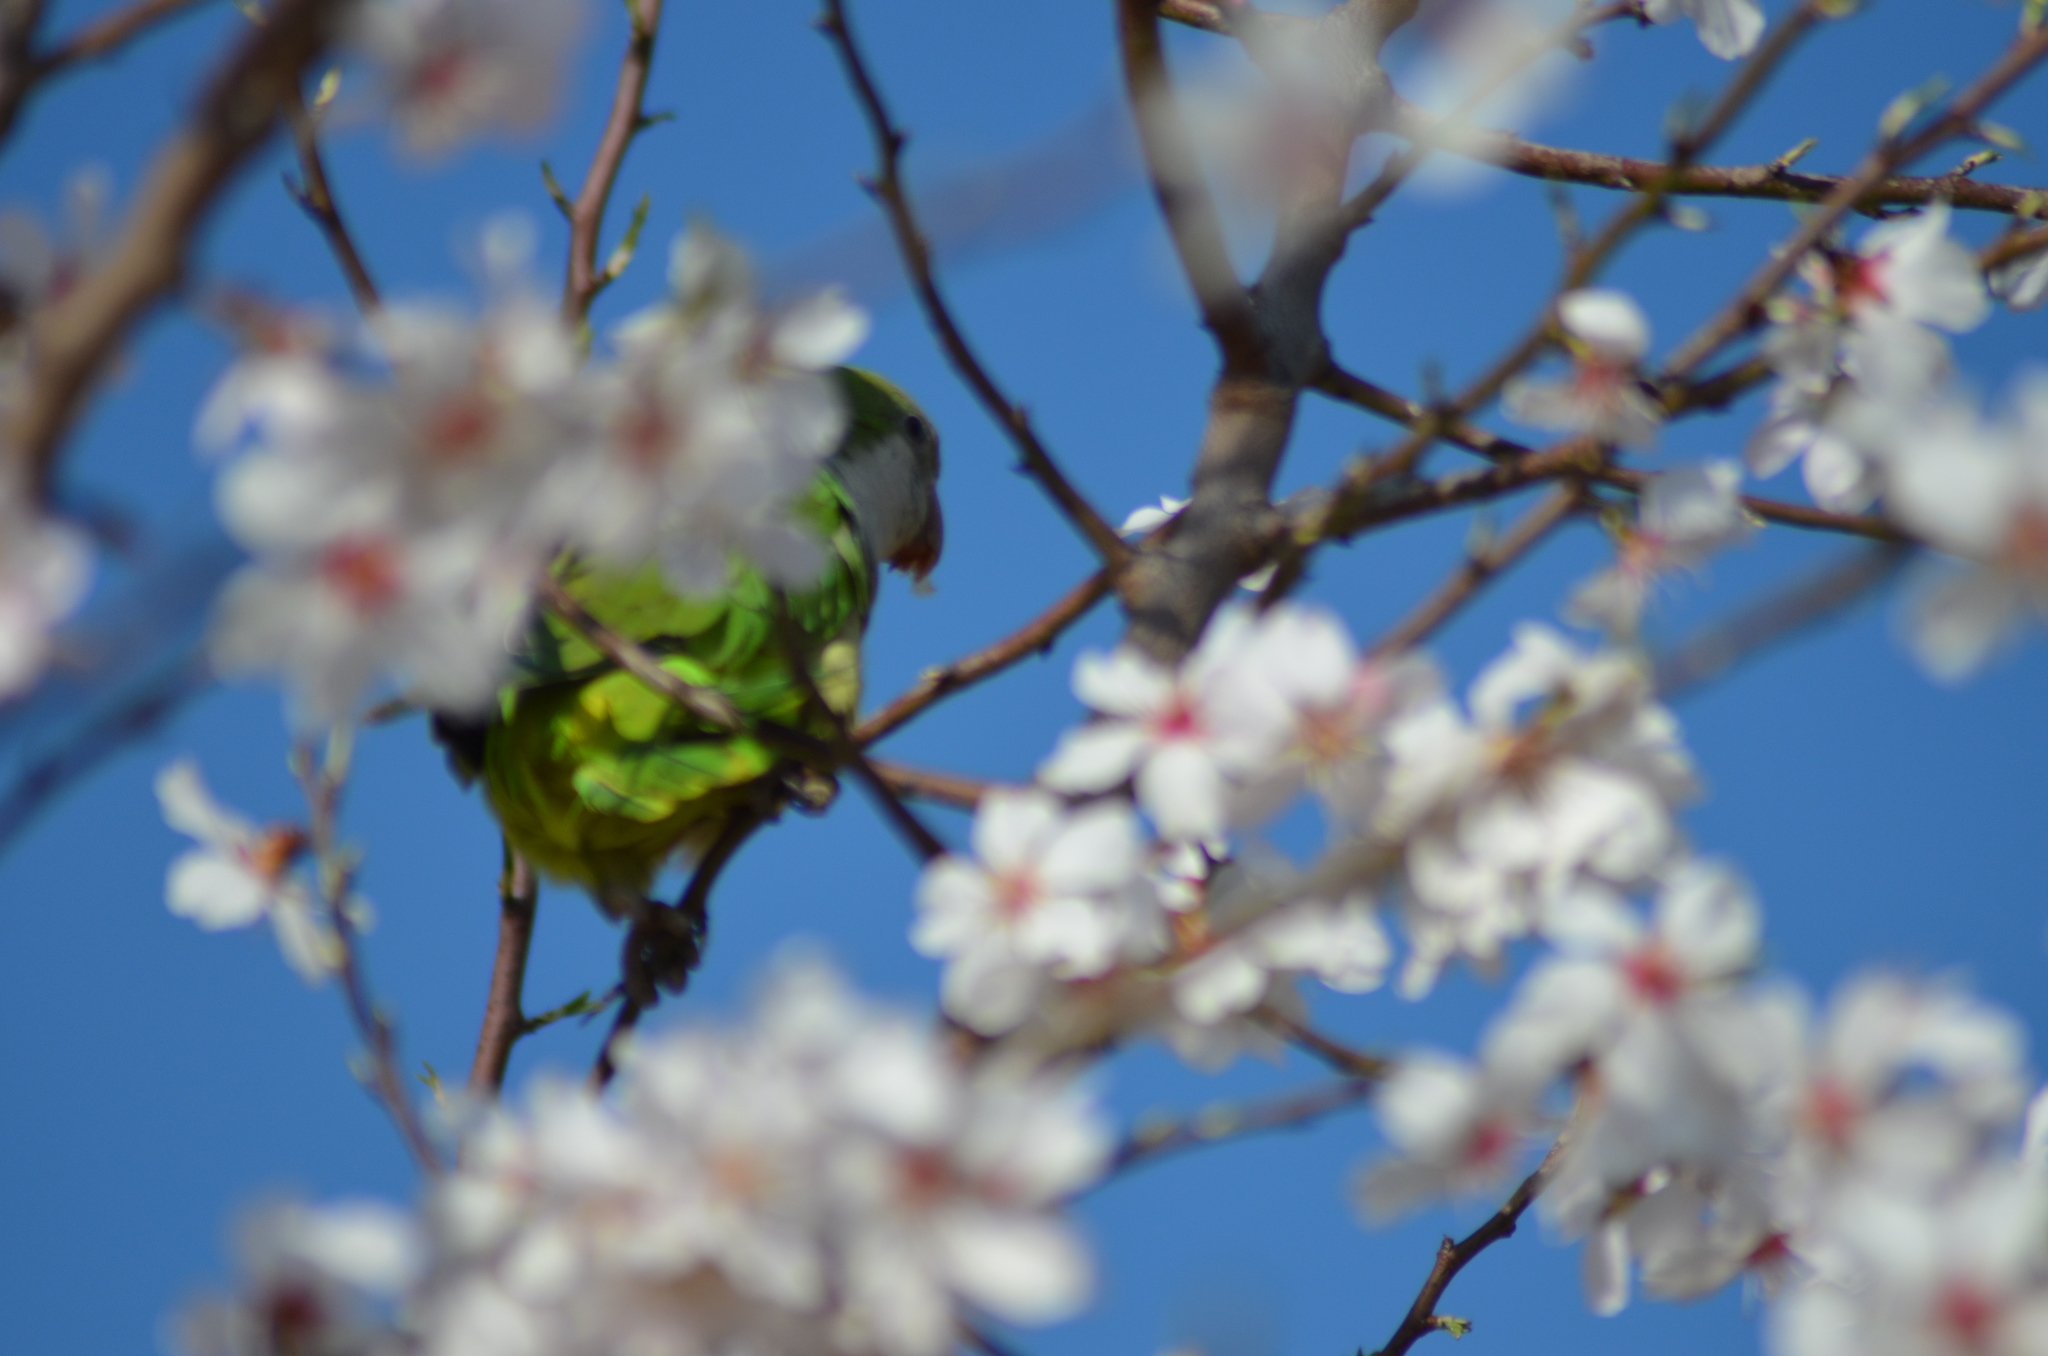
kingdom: Animalia
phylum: Chordata
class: Aves
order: Psittaciformes
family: Psittacidae
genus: Myiopsitta
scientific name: Myiopsitta monachus
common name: Monk parakeet
